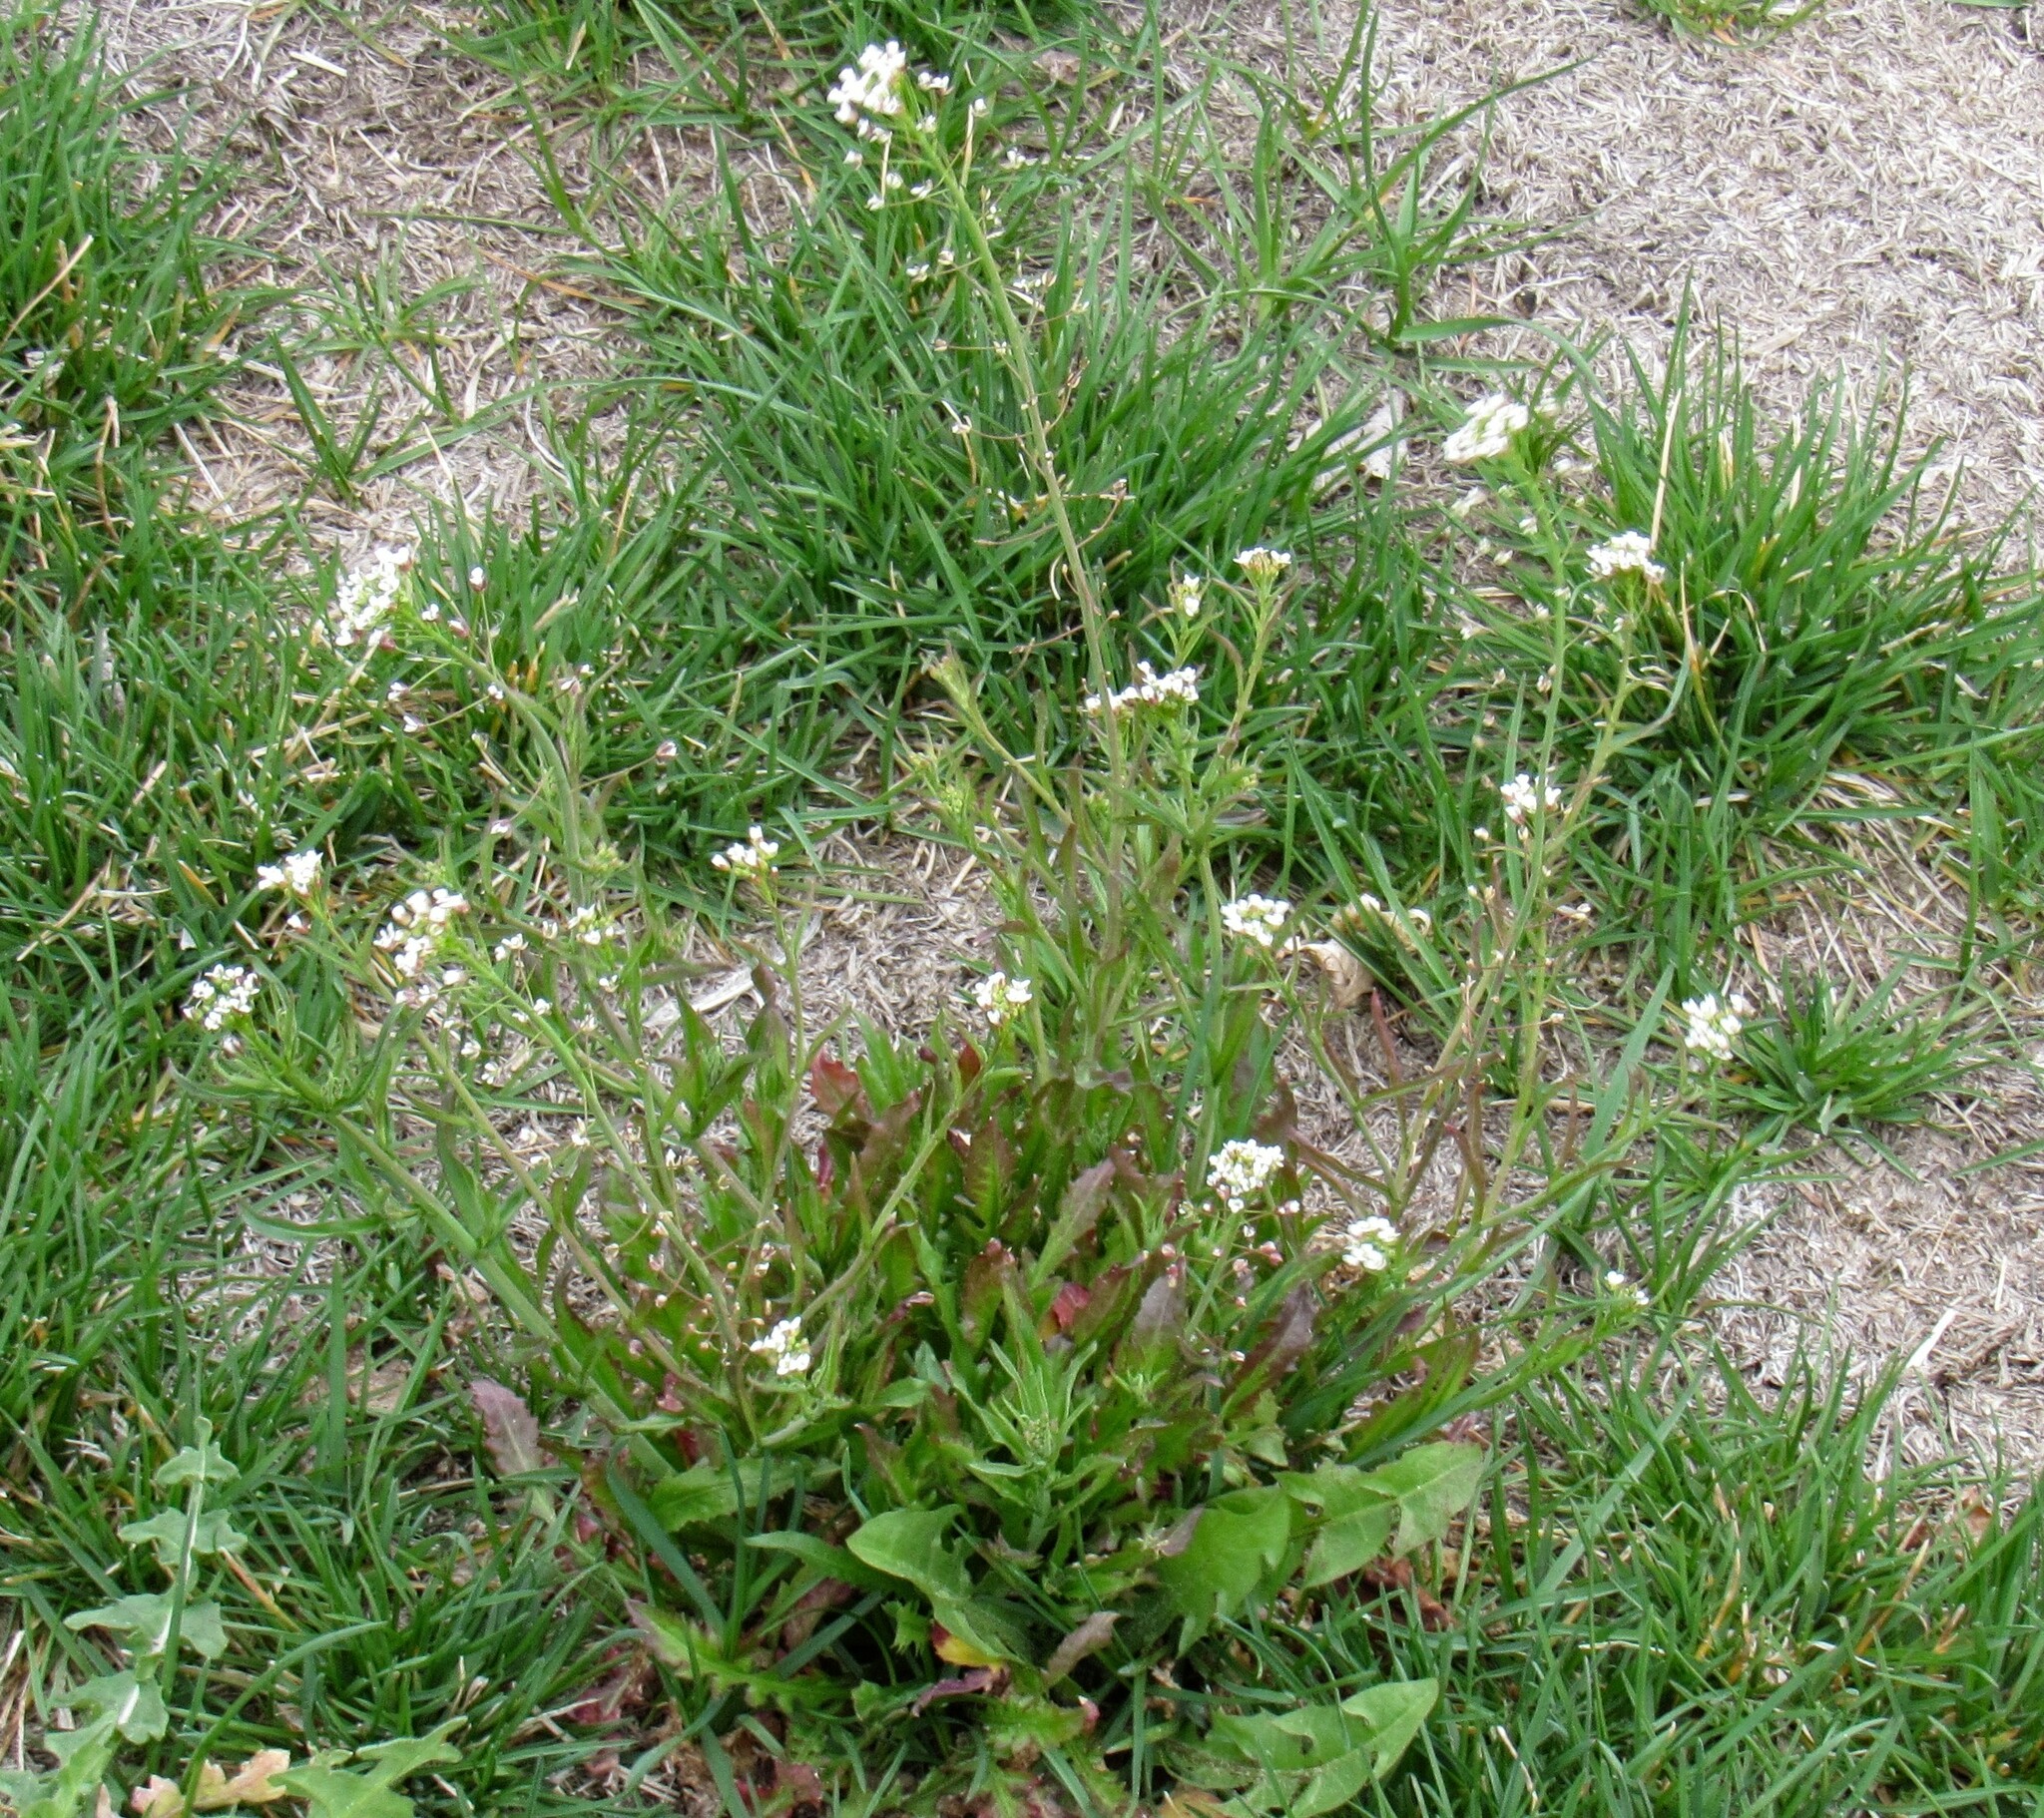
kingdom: Plantae
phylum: Tracheophyta
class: Magnoliopsida
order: Brassicales
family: Brassicaceae
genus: Capsella
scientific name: Capsella bursa-pastoris
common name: Shepherd's purse
